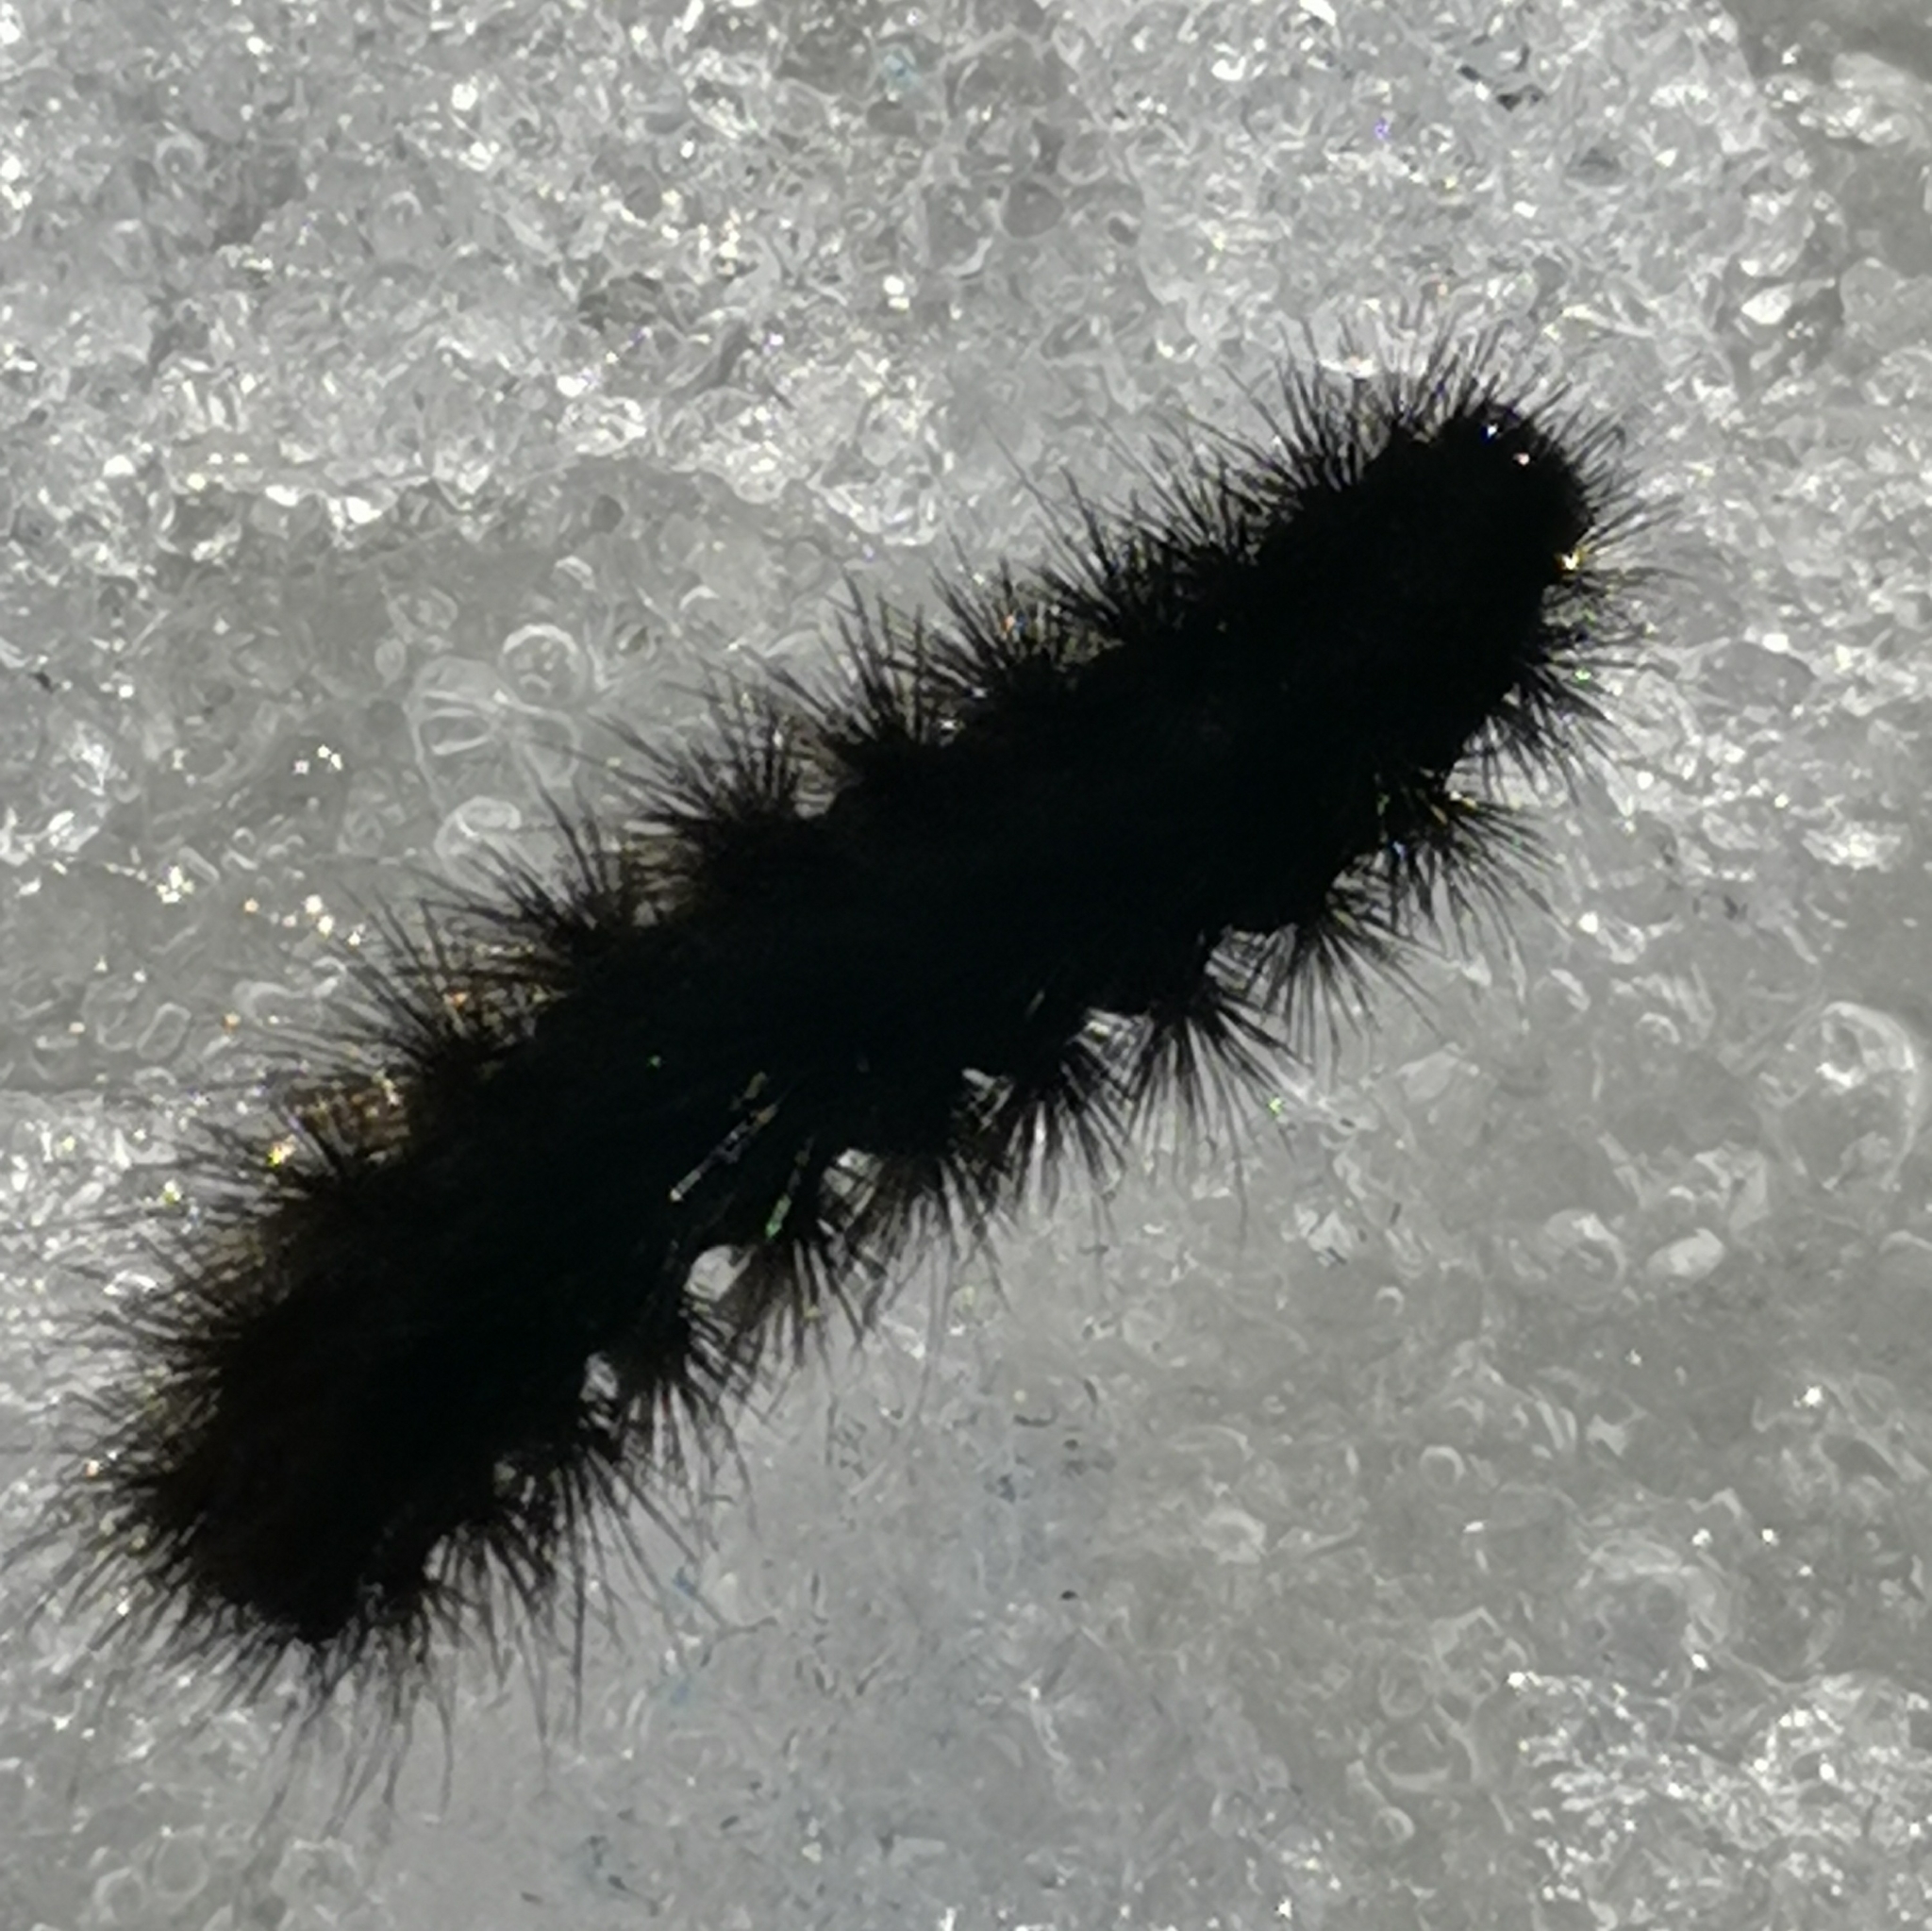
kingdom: Animalia
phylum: Arthropoda
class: Insecta
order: Lepidoptera
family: Erebidae
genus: Phragmatobia
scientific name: Phragmatobia fuliginosa
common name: Ruby tiger
